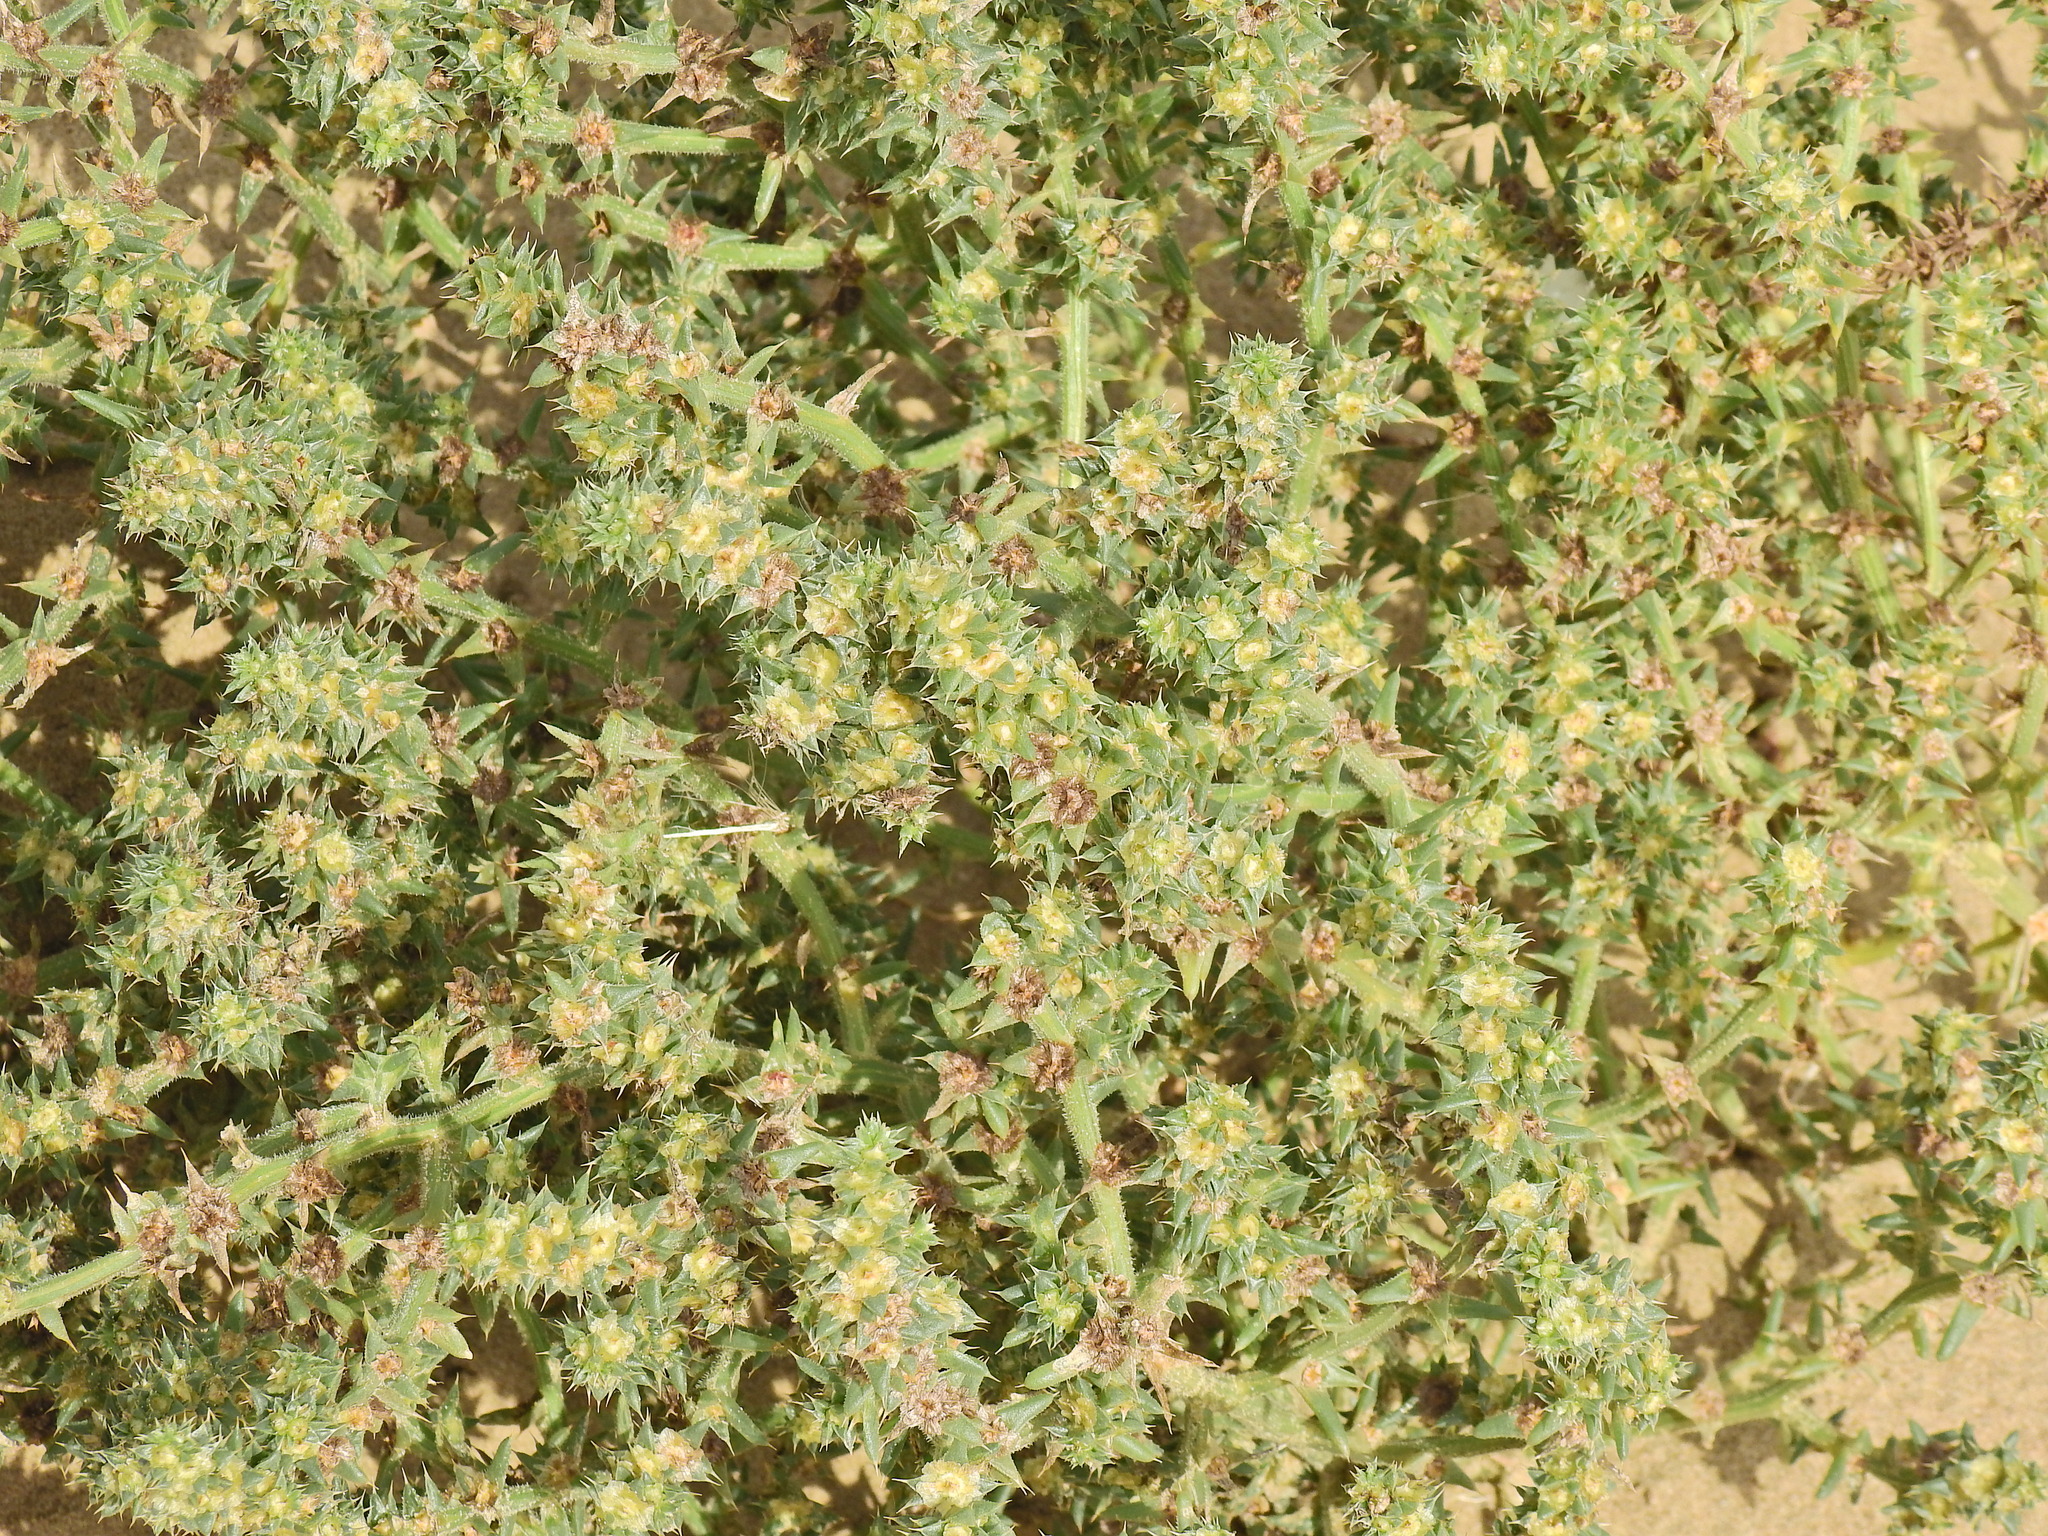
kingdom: Plantae
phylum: Tracheophyta
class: Magnoliopsida
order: Caryophyllales
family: Amaranthaceae
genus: Salsola
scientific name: Salsola kali
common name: Saltwort
